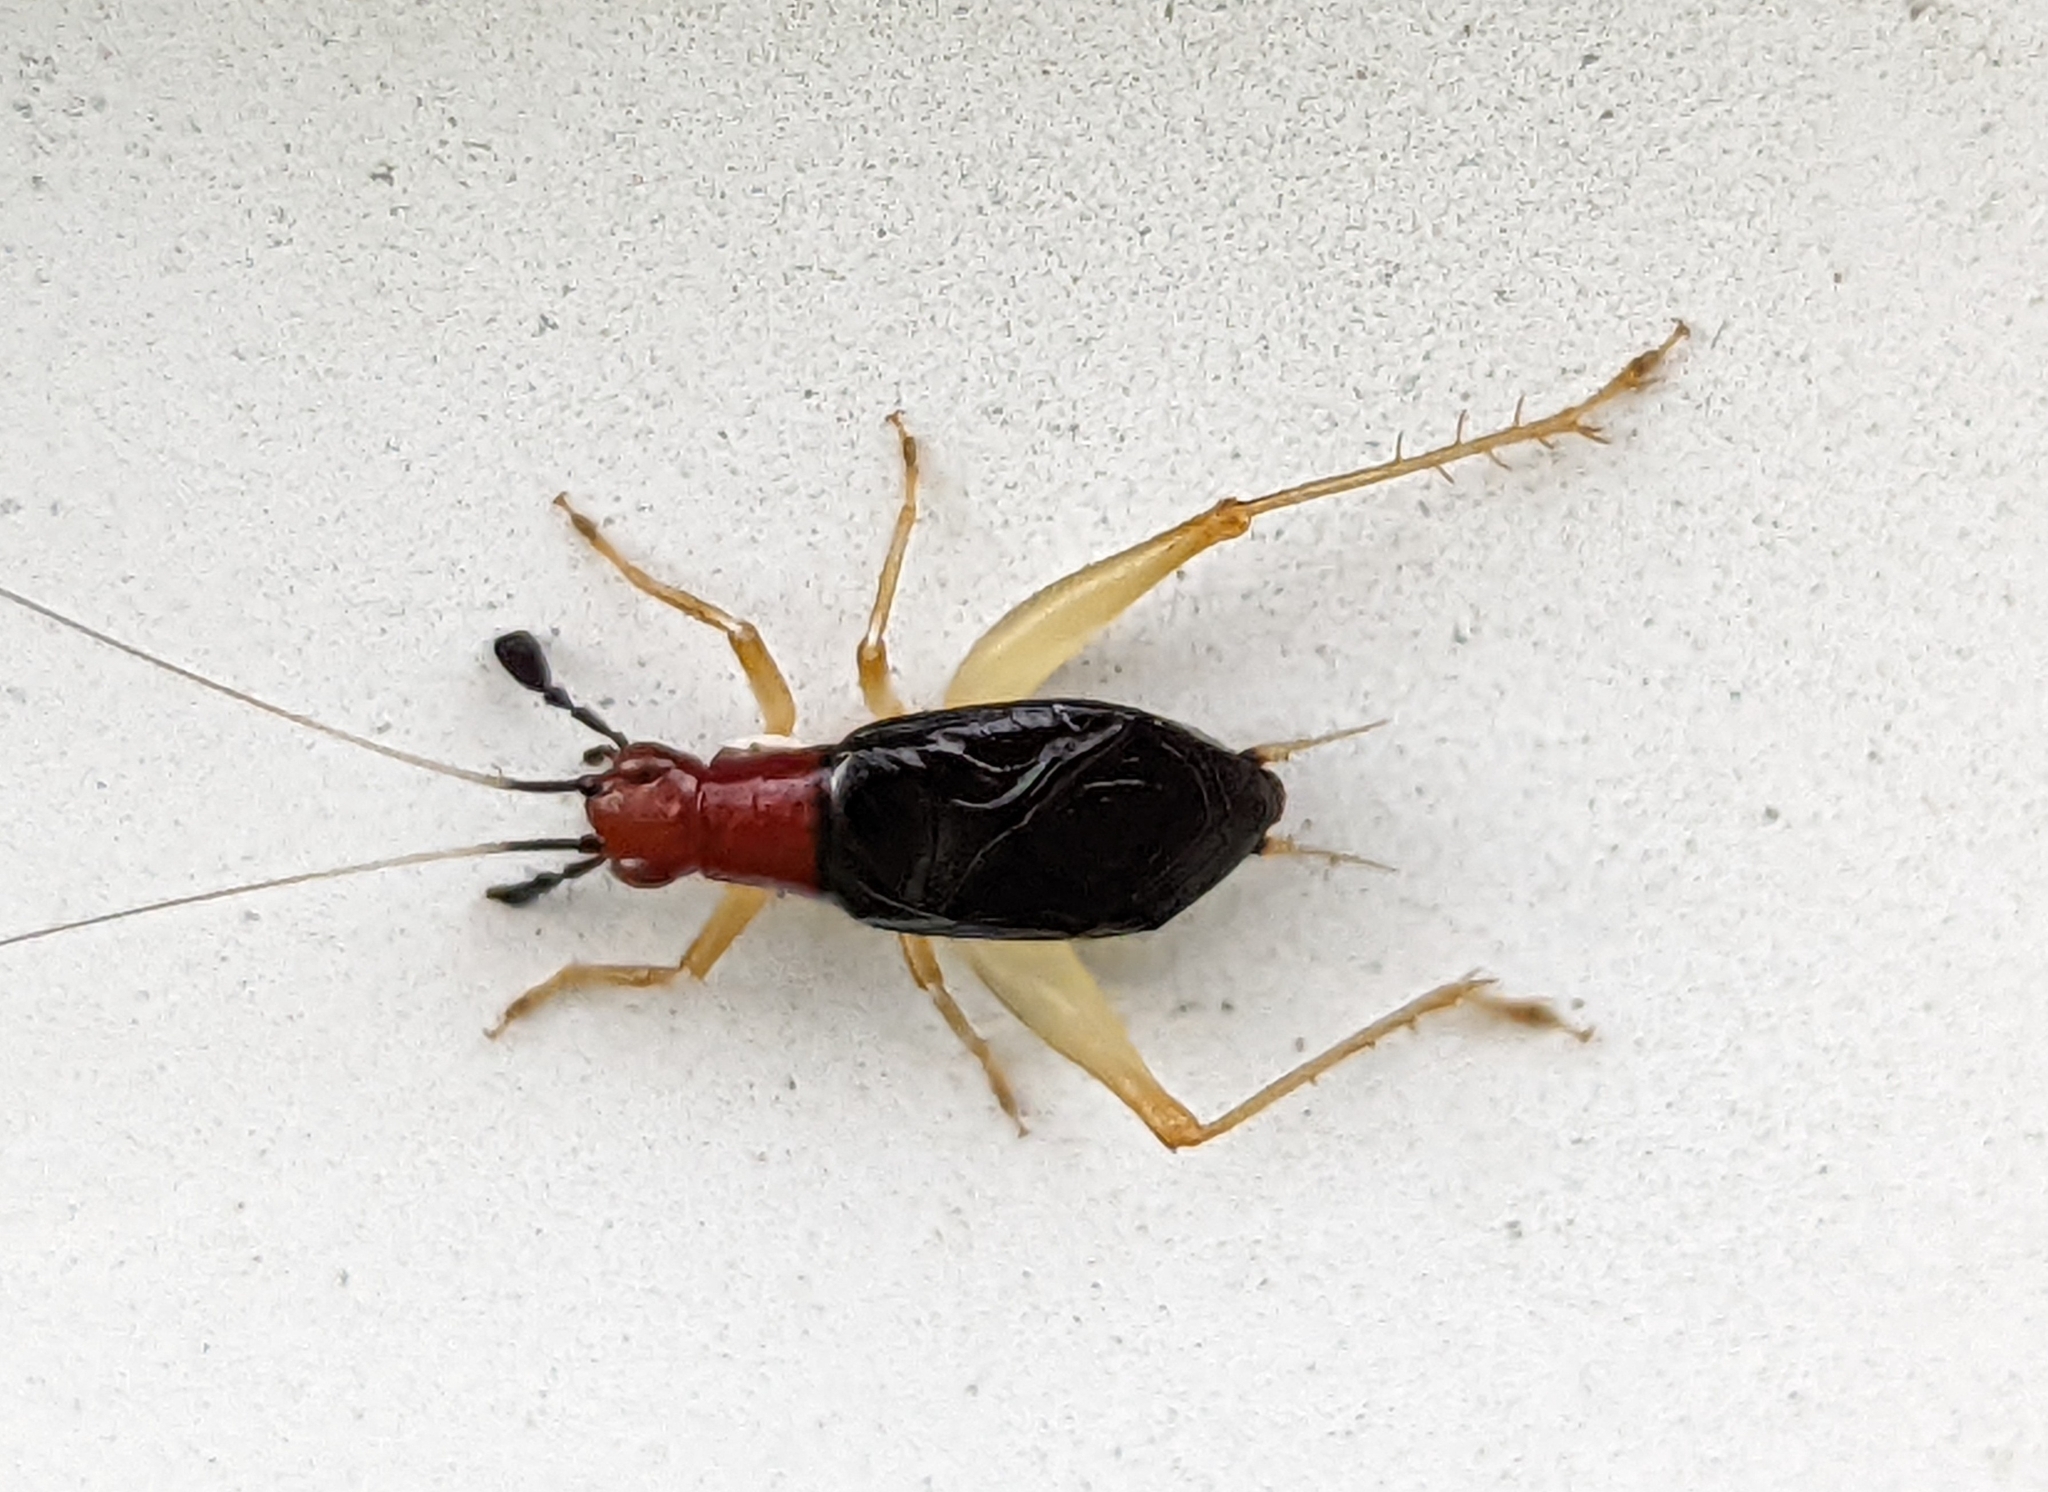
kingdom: Animalia
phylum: Arthropoda
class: Insecta
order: Orthoptera
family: Trigonidiidae
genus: Phyllopalpus
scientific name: Phyllopalpus pulchellus
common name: Handsome trig
